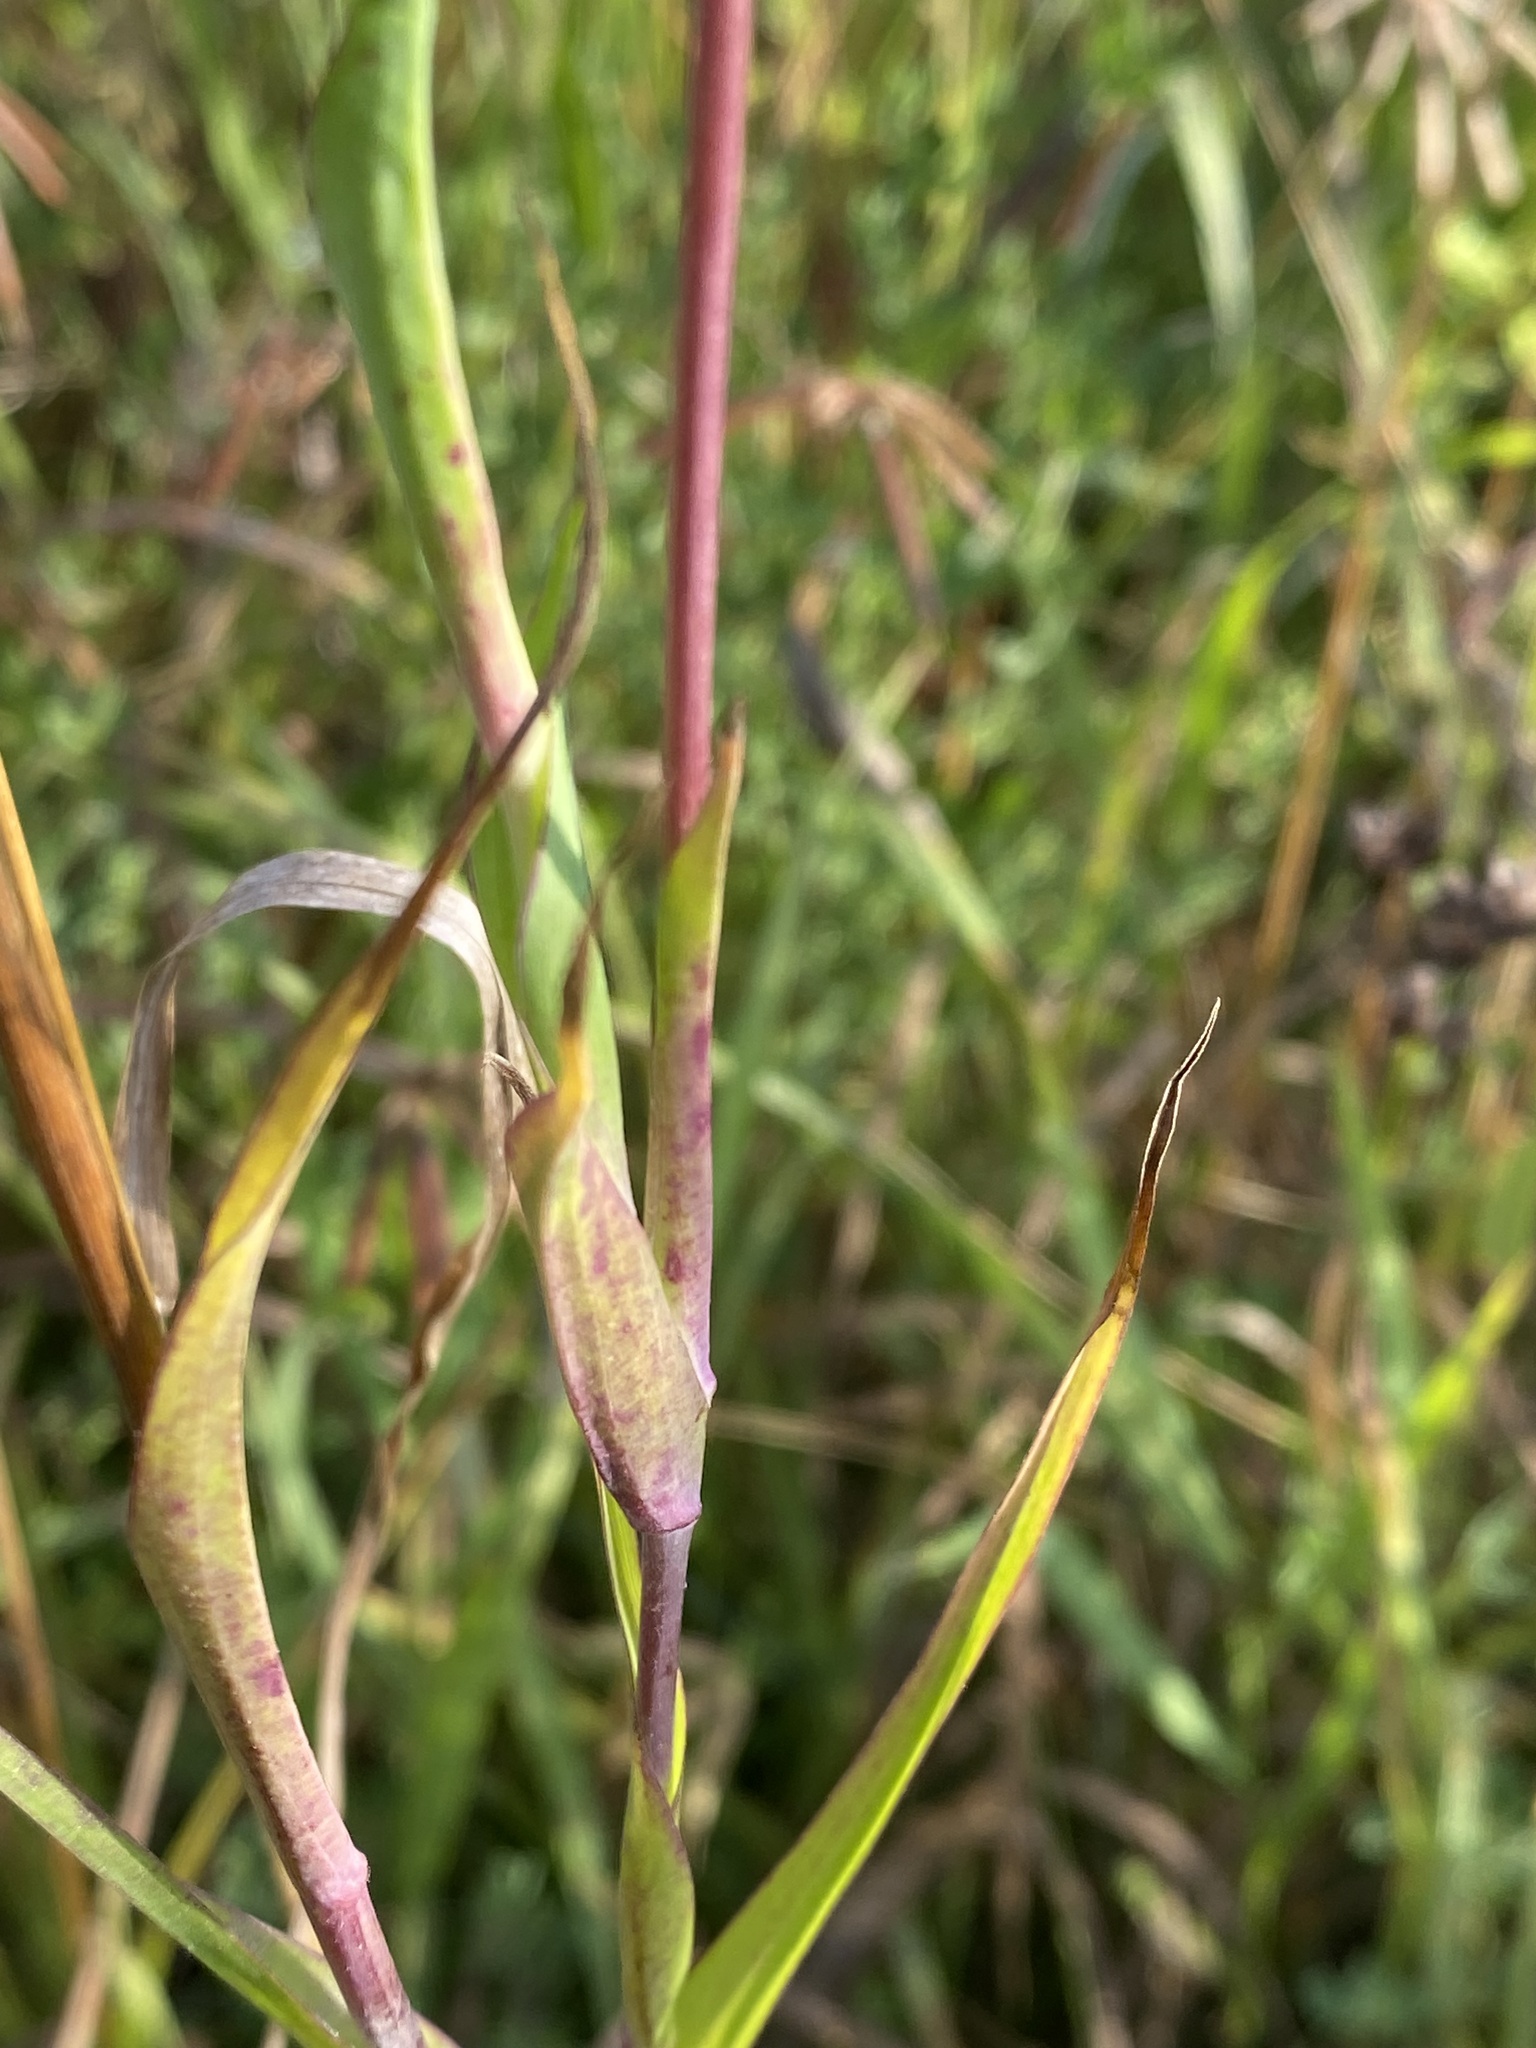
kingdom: Plantae
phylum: Tracheophyta
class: Magnoliopsida
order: Asterales
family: Asteraceae
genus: Tragopogon
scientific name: Tragopogon pratensis
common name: Goat's-beard
